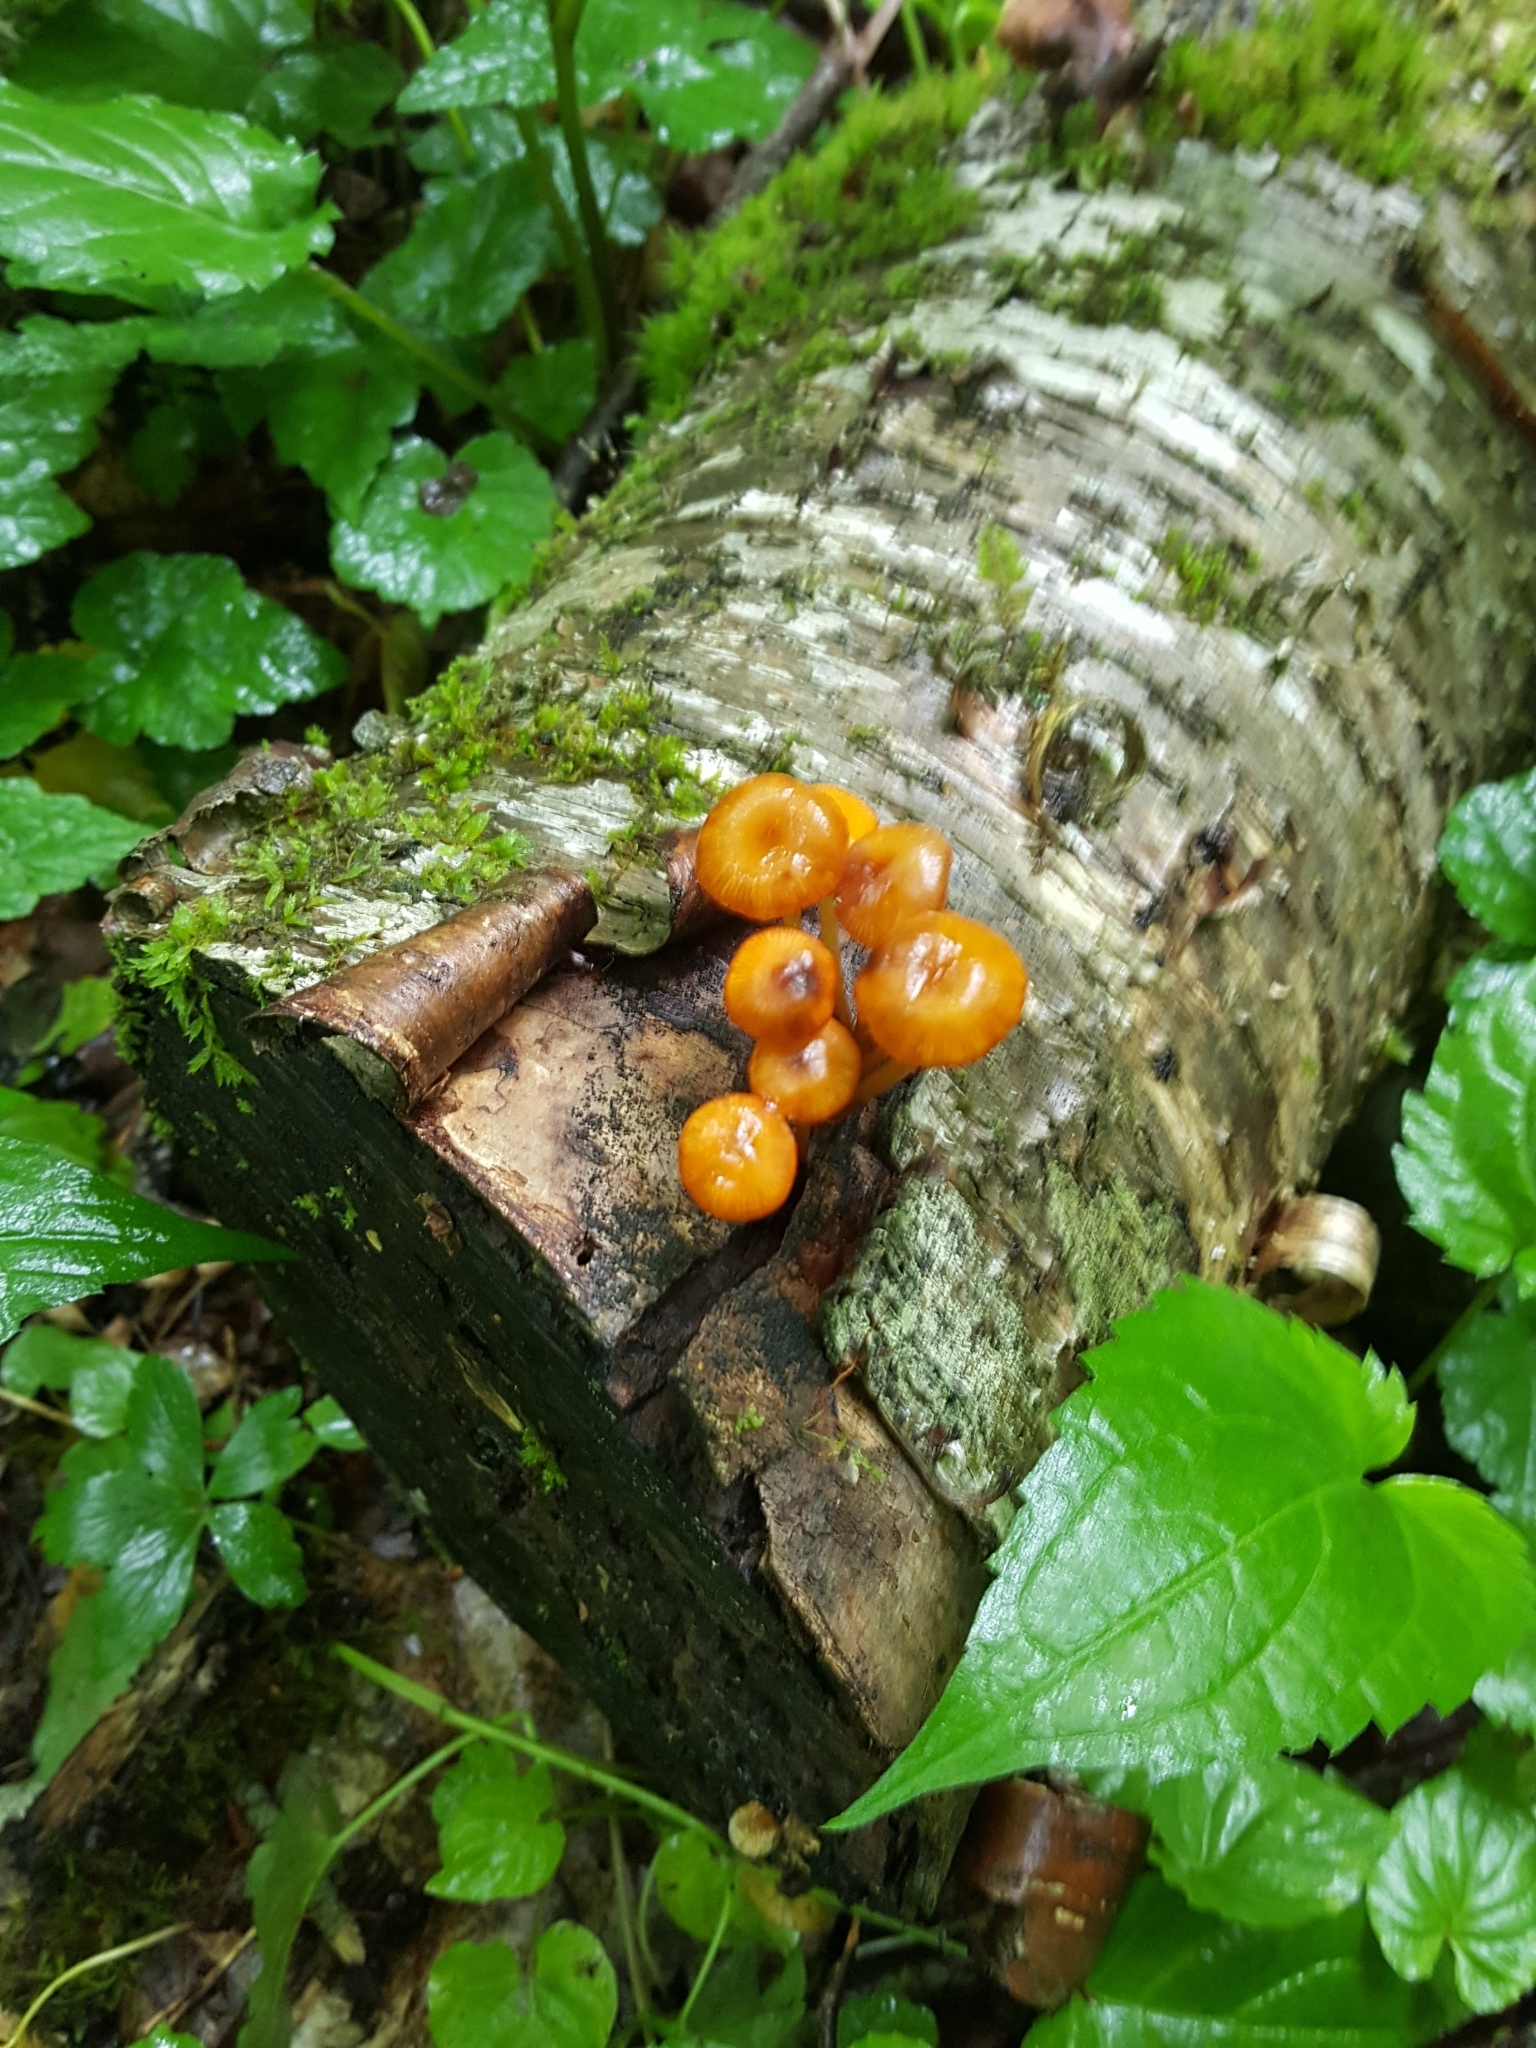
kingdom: Fungi
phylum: Basidiomycota
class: Agaricomycetes
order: Agaricales
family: Mycenaceae
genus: Mycena
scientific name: Mycena leaiana
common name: Orange mycena
